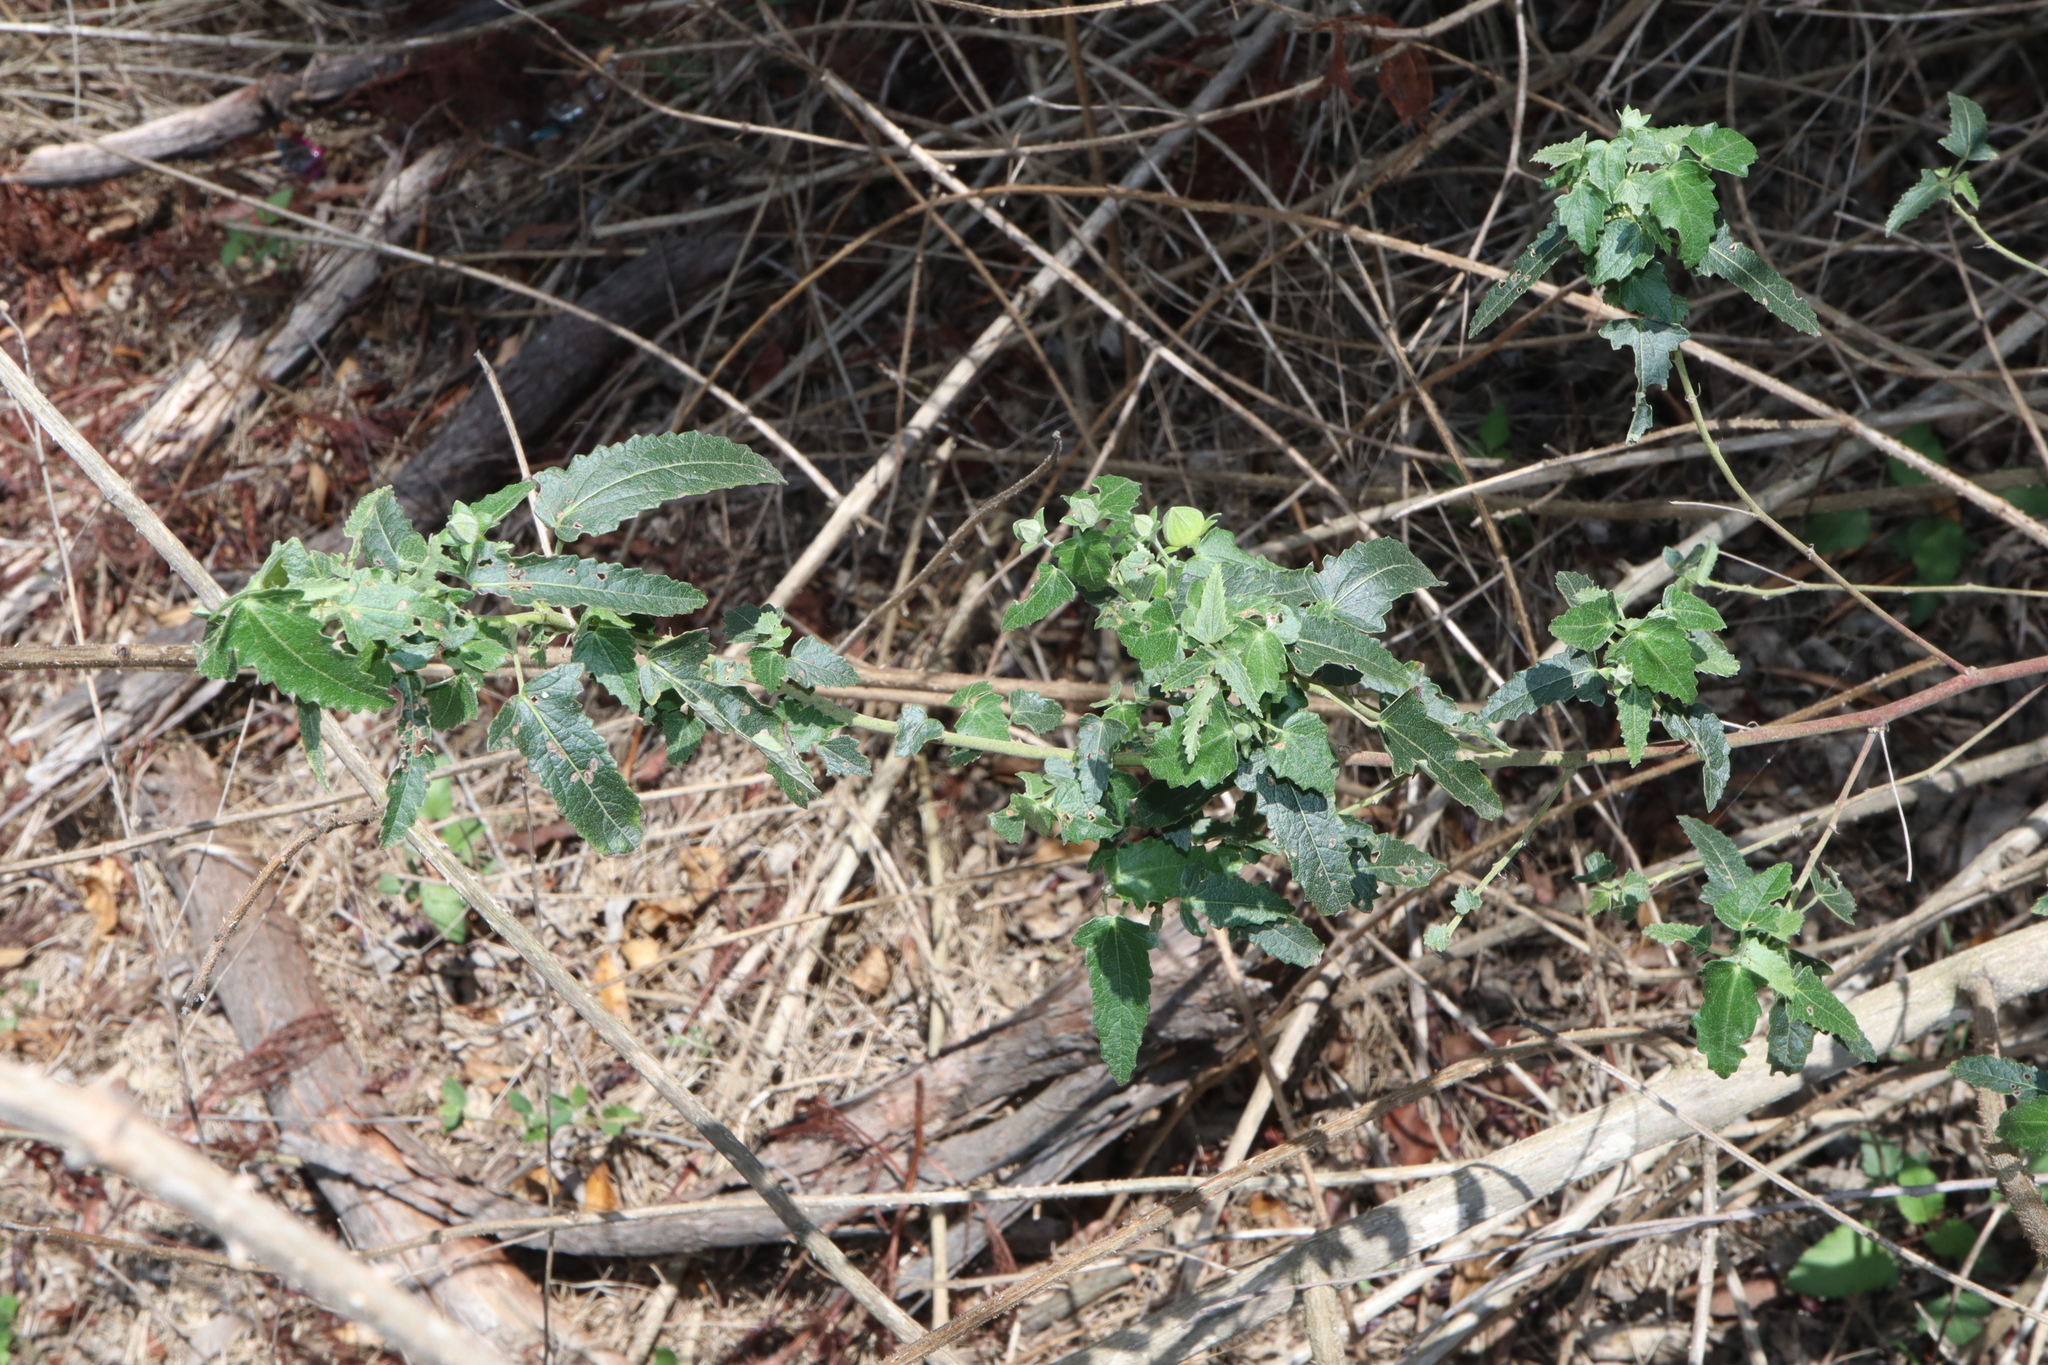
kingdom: Plantae
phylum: Tracheophyta
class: Magnoliopsida
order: Malvales
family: Malvaceae
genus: Pavonia
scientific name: Pavonia hastata
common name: Spearleaf swampmallow
